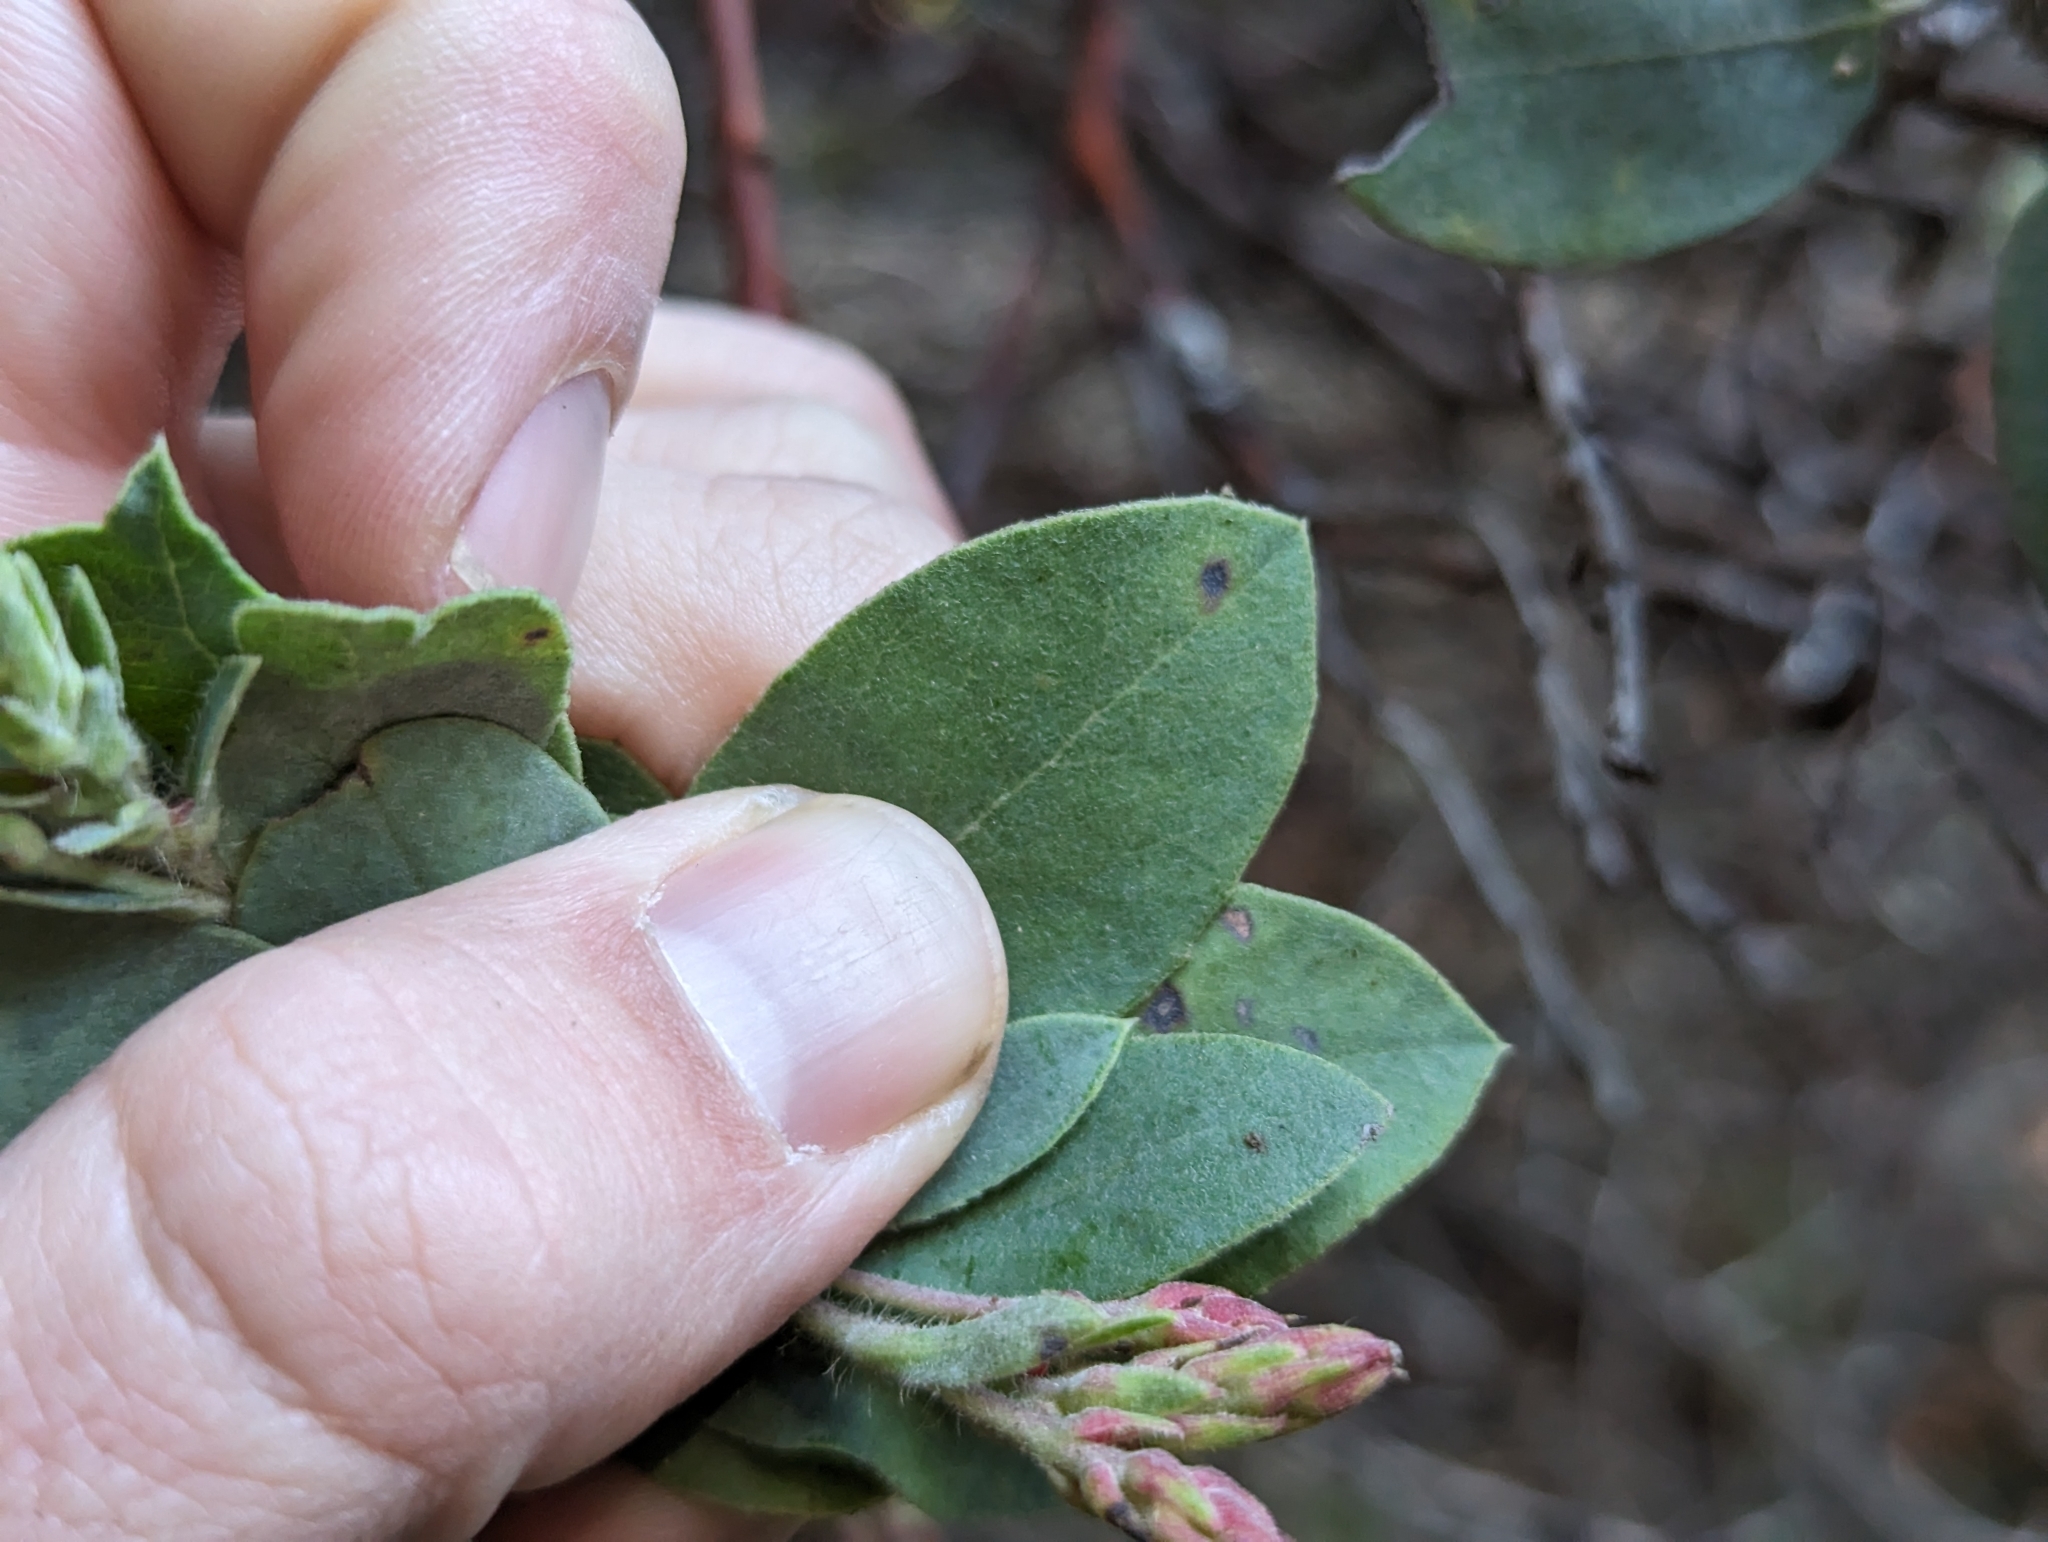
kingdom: Plantae
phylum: Tracheophyta
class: Magnoliopsida
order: Ericales
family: Ericaceae
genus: Arctostaphylos
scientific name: Arctostaphylos crustacea
